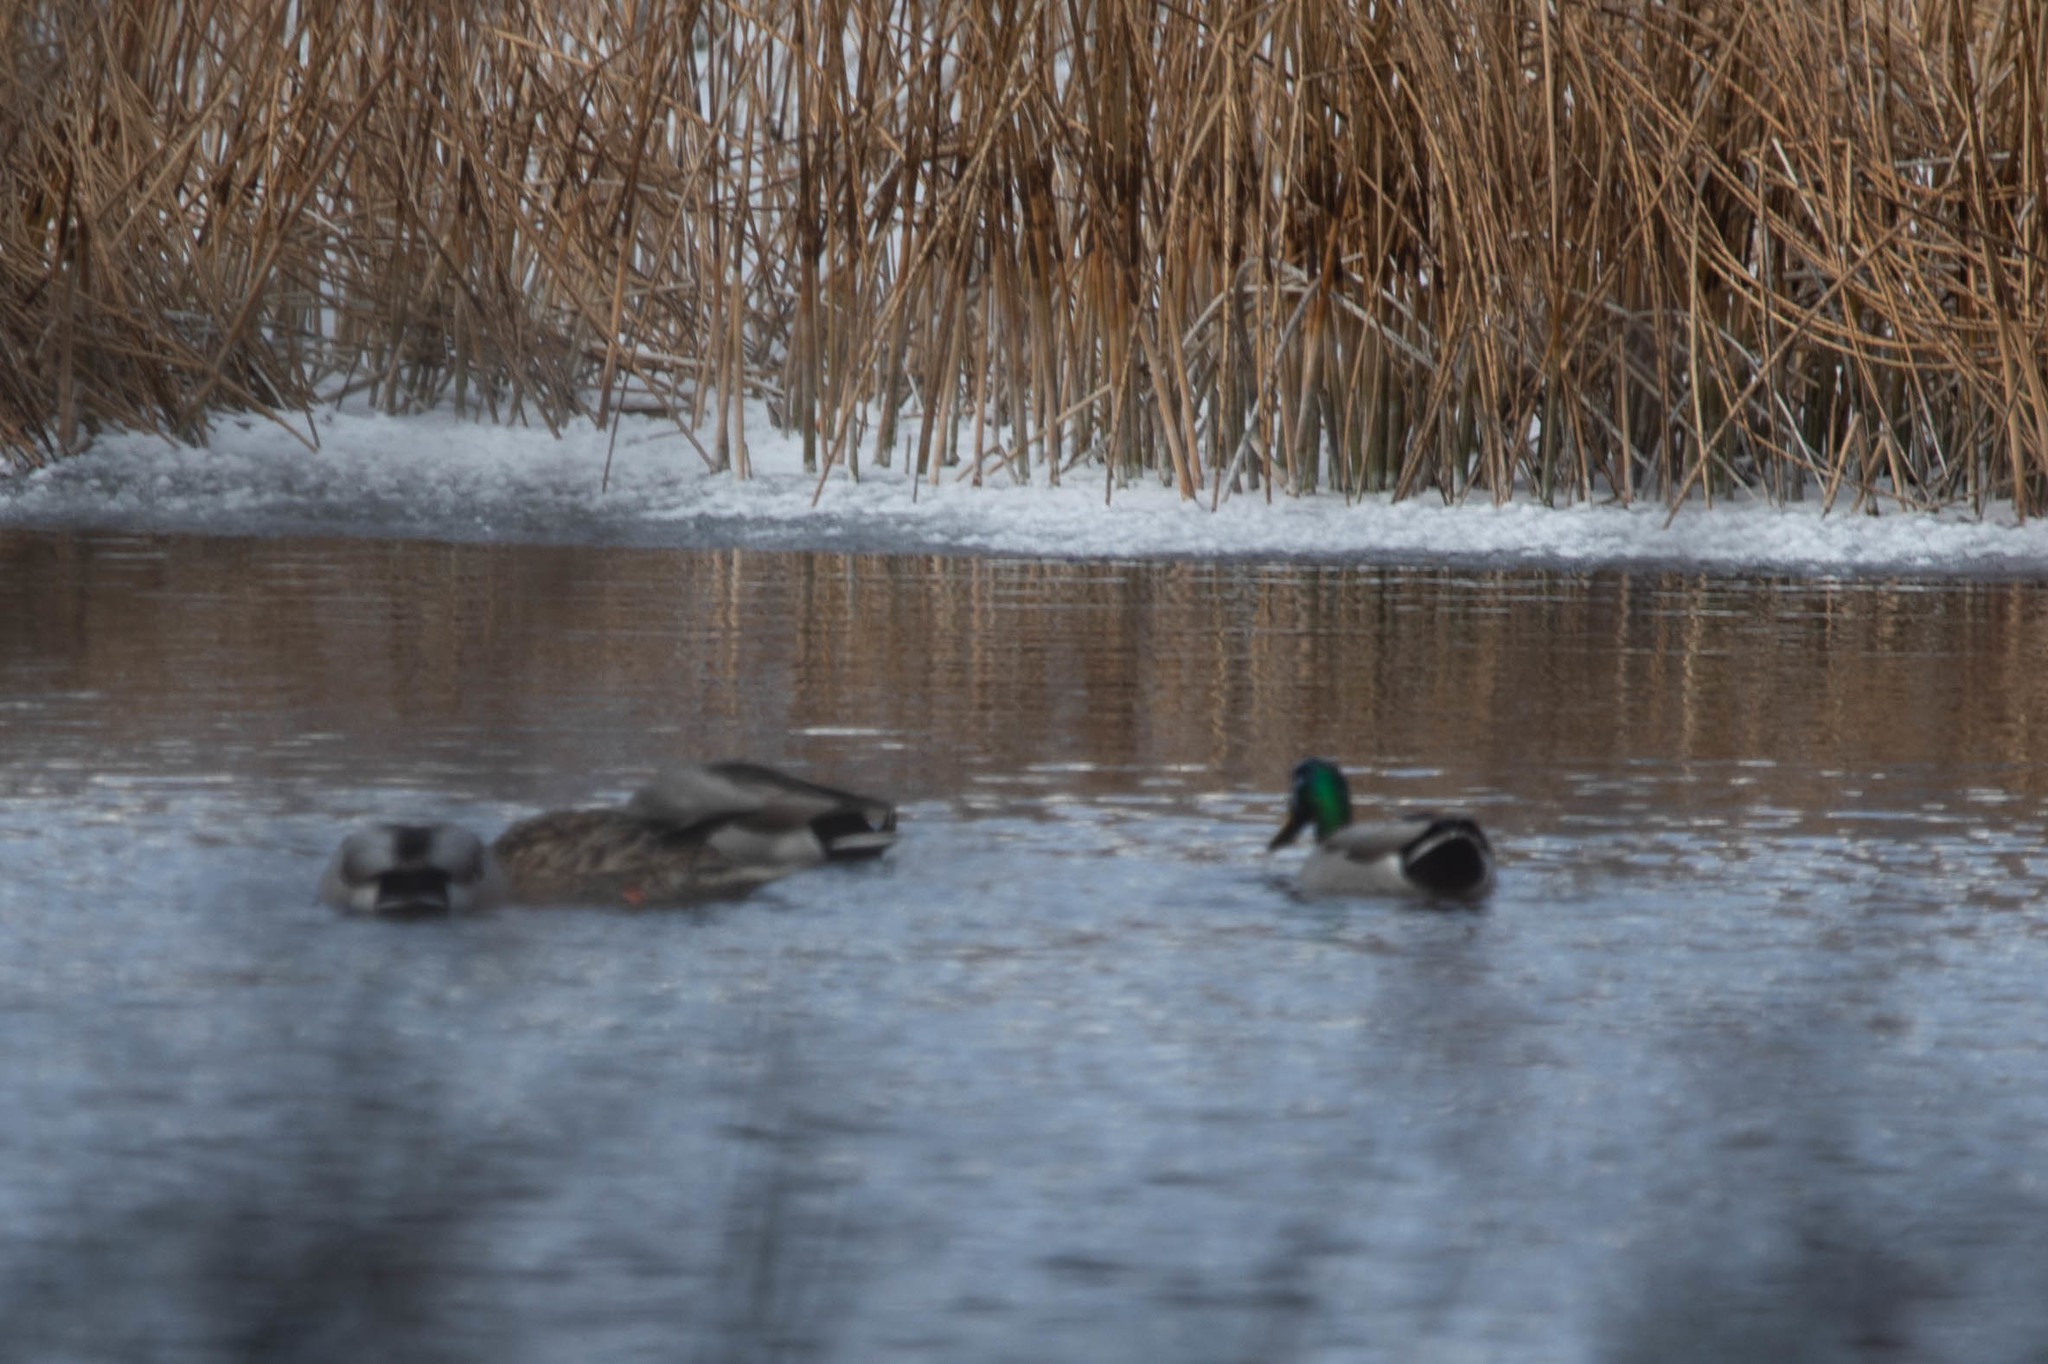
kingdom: Animalia
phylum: Chordata
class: Aves
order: Anseriformes
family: Anatidae
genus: Anas
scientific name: Anas platyrhynchos
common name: Mallard
